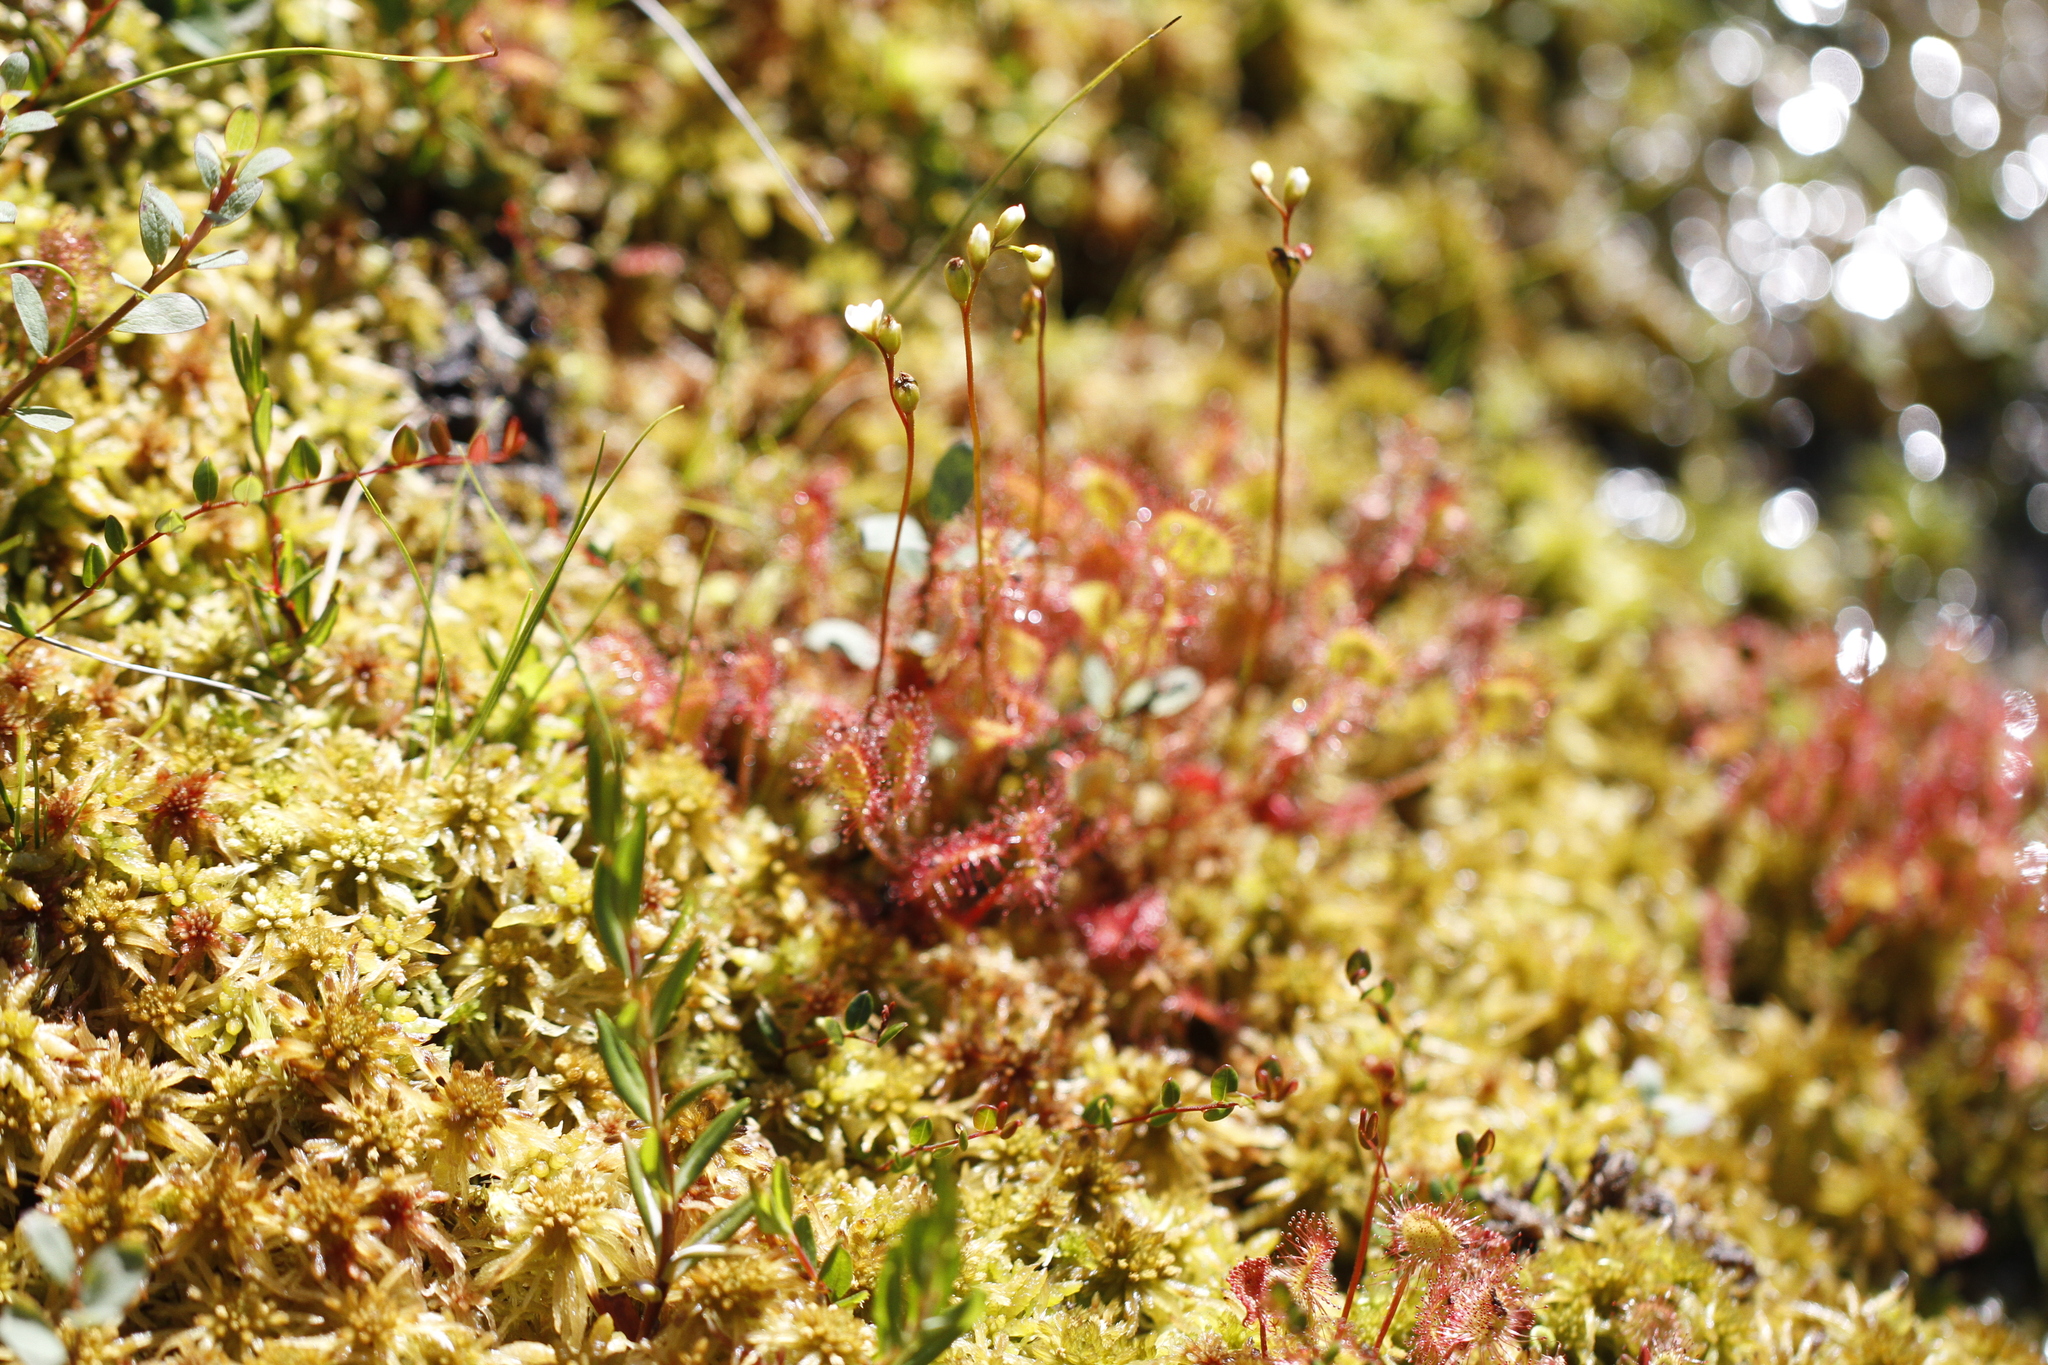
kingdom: Plantae
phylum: Tracheophyta
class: Magnoliopsida
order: Caryophyllales
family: Droseraceae
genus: Drosera
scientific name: Drosera rotundifolia
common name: Round-leaved sundew
